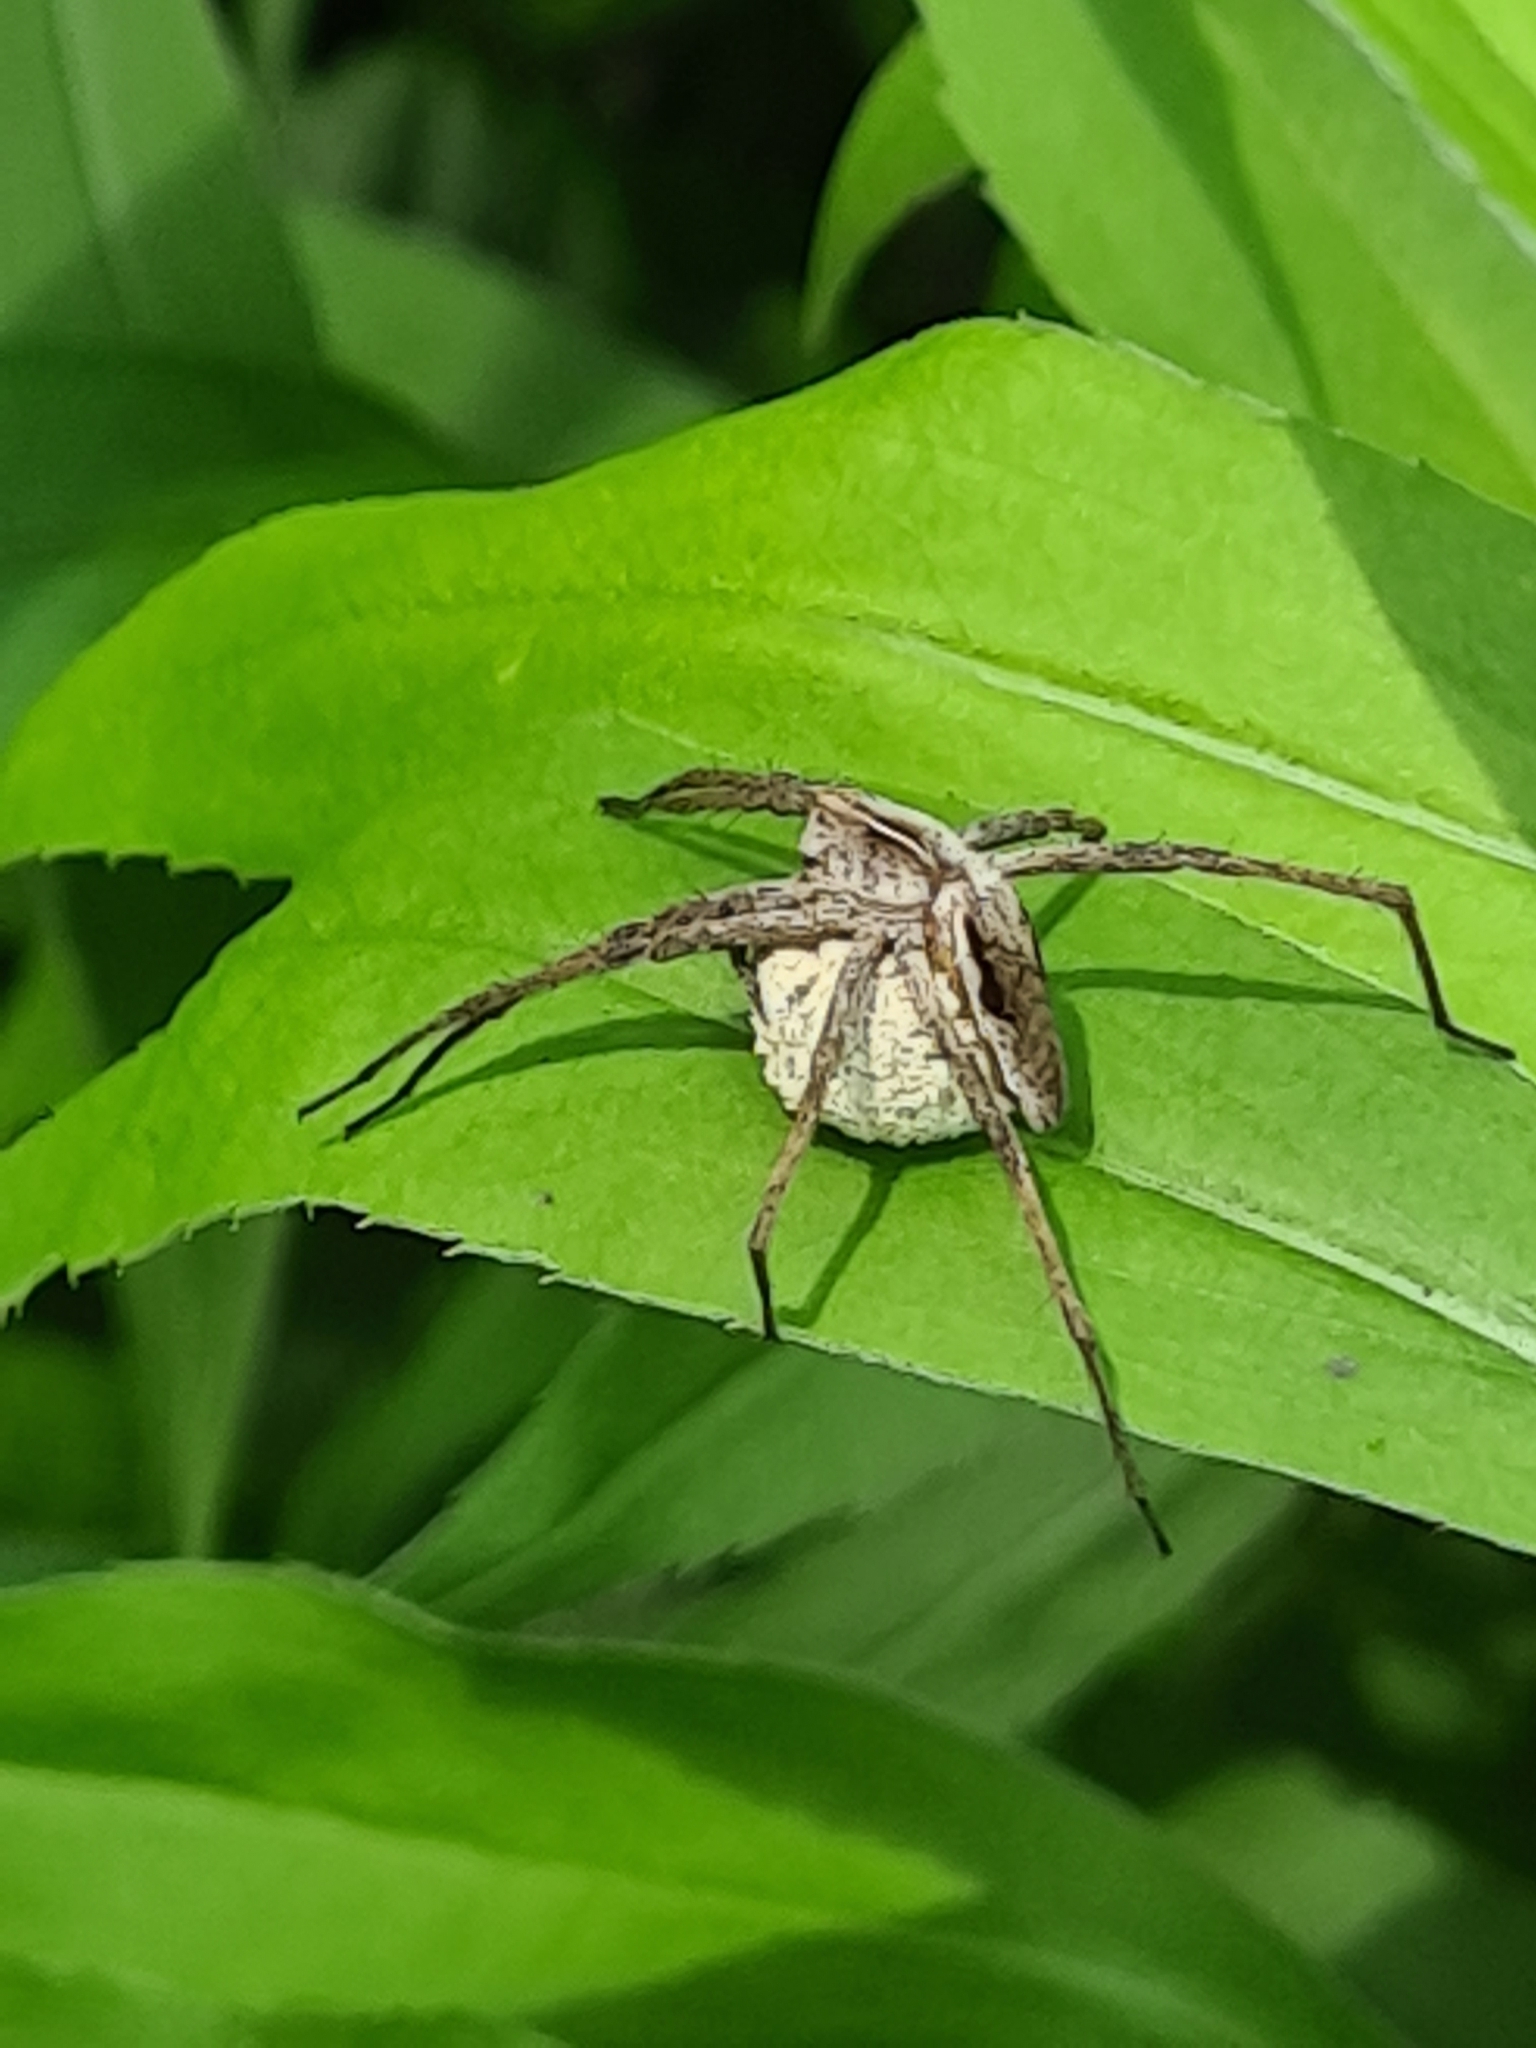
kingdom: Animalia
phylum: Arthropoda
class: Arachnida
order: Araneae
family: Pisauridae
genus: Pisaura
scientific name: Pisaura mirabilis
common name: Tent spider
